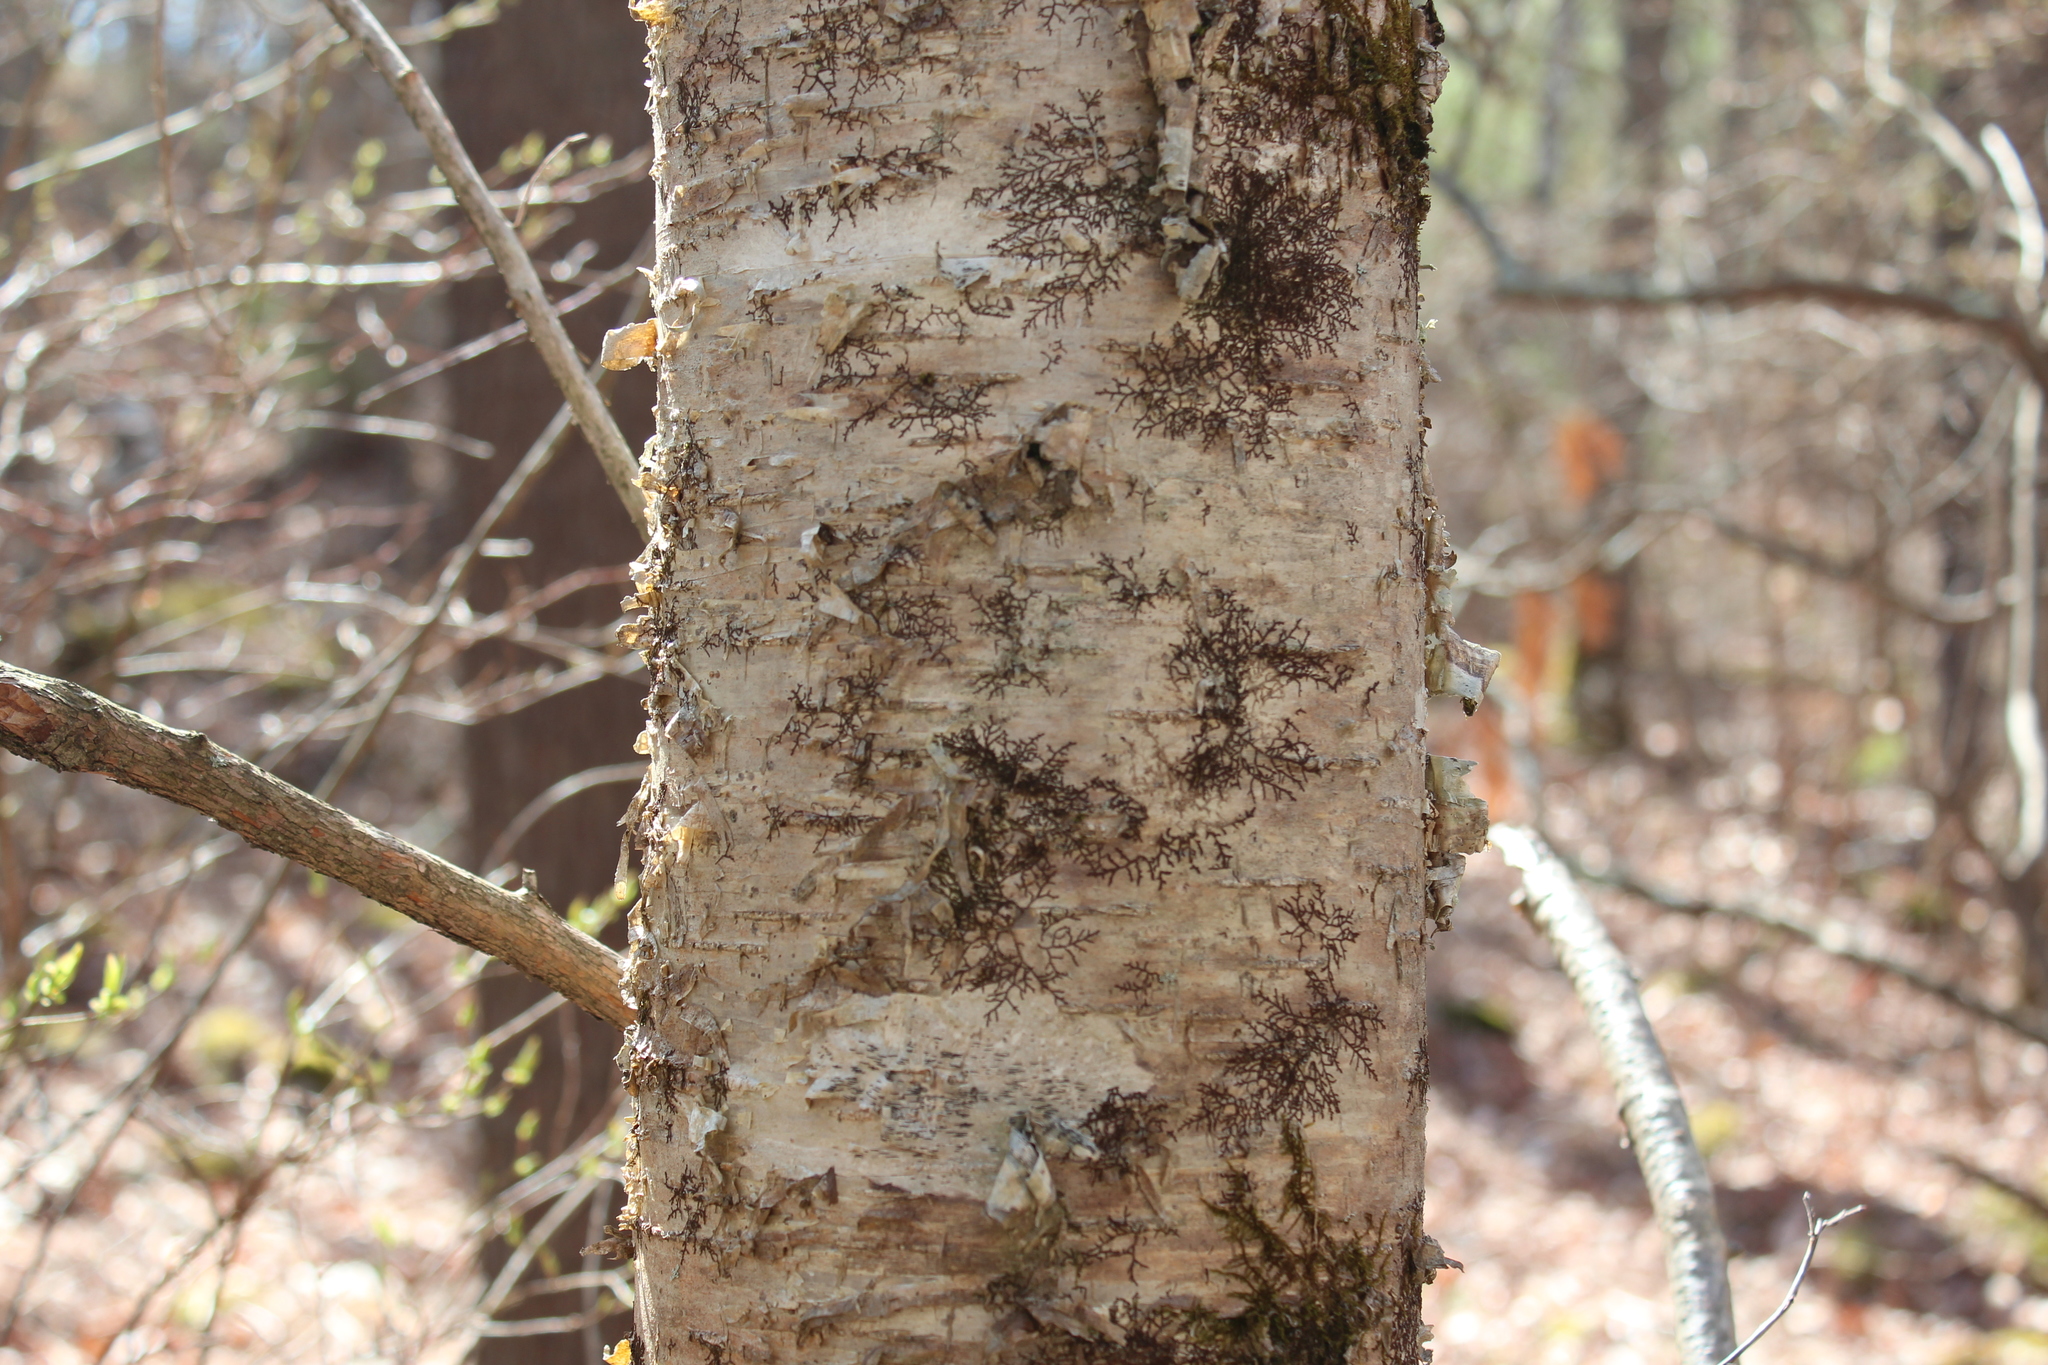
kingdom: Plantae
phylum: Tracheophyta
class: Magnoliopsida
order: Fagales
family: Betulaceae
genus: Betula
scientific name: Betula alleghaniensis
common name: Yellow birch
